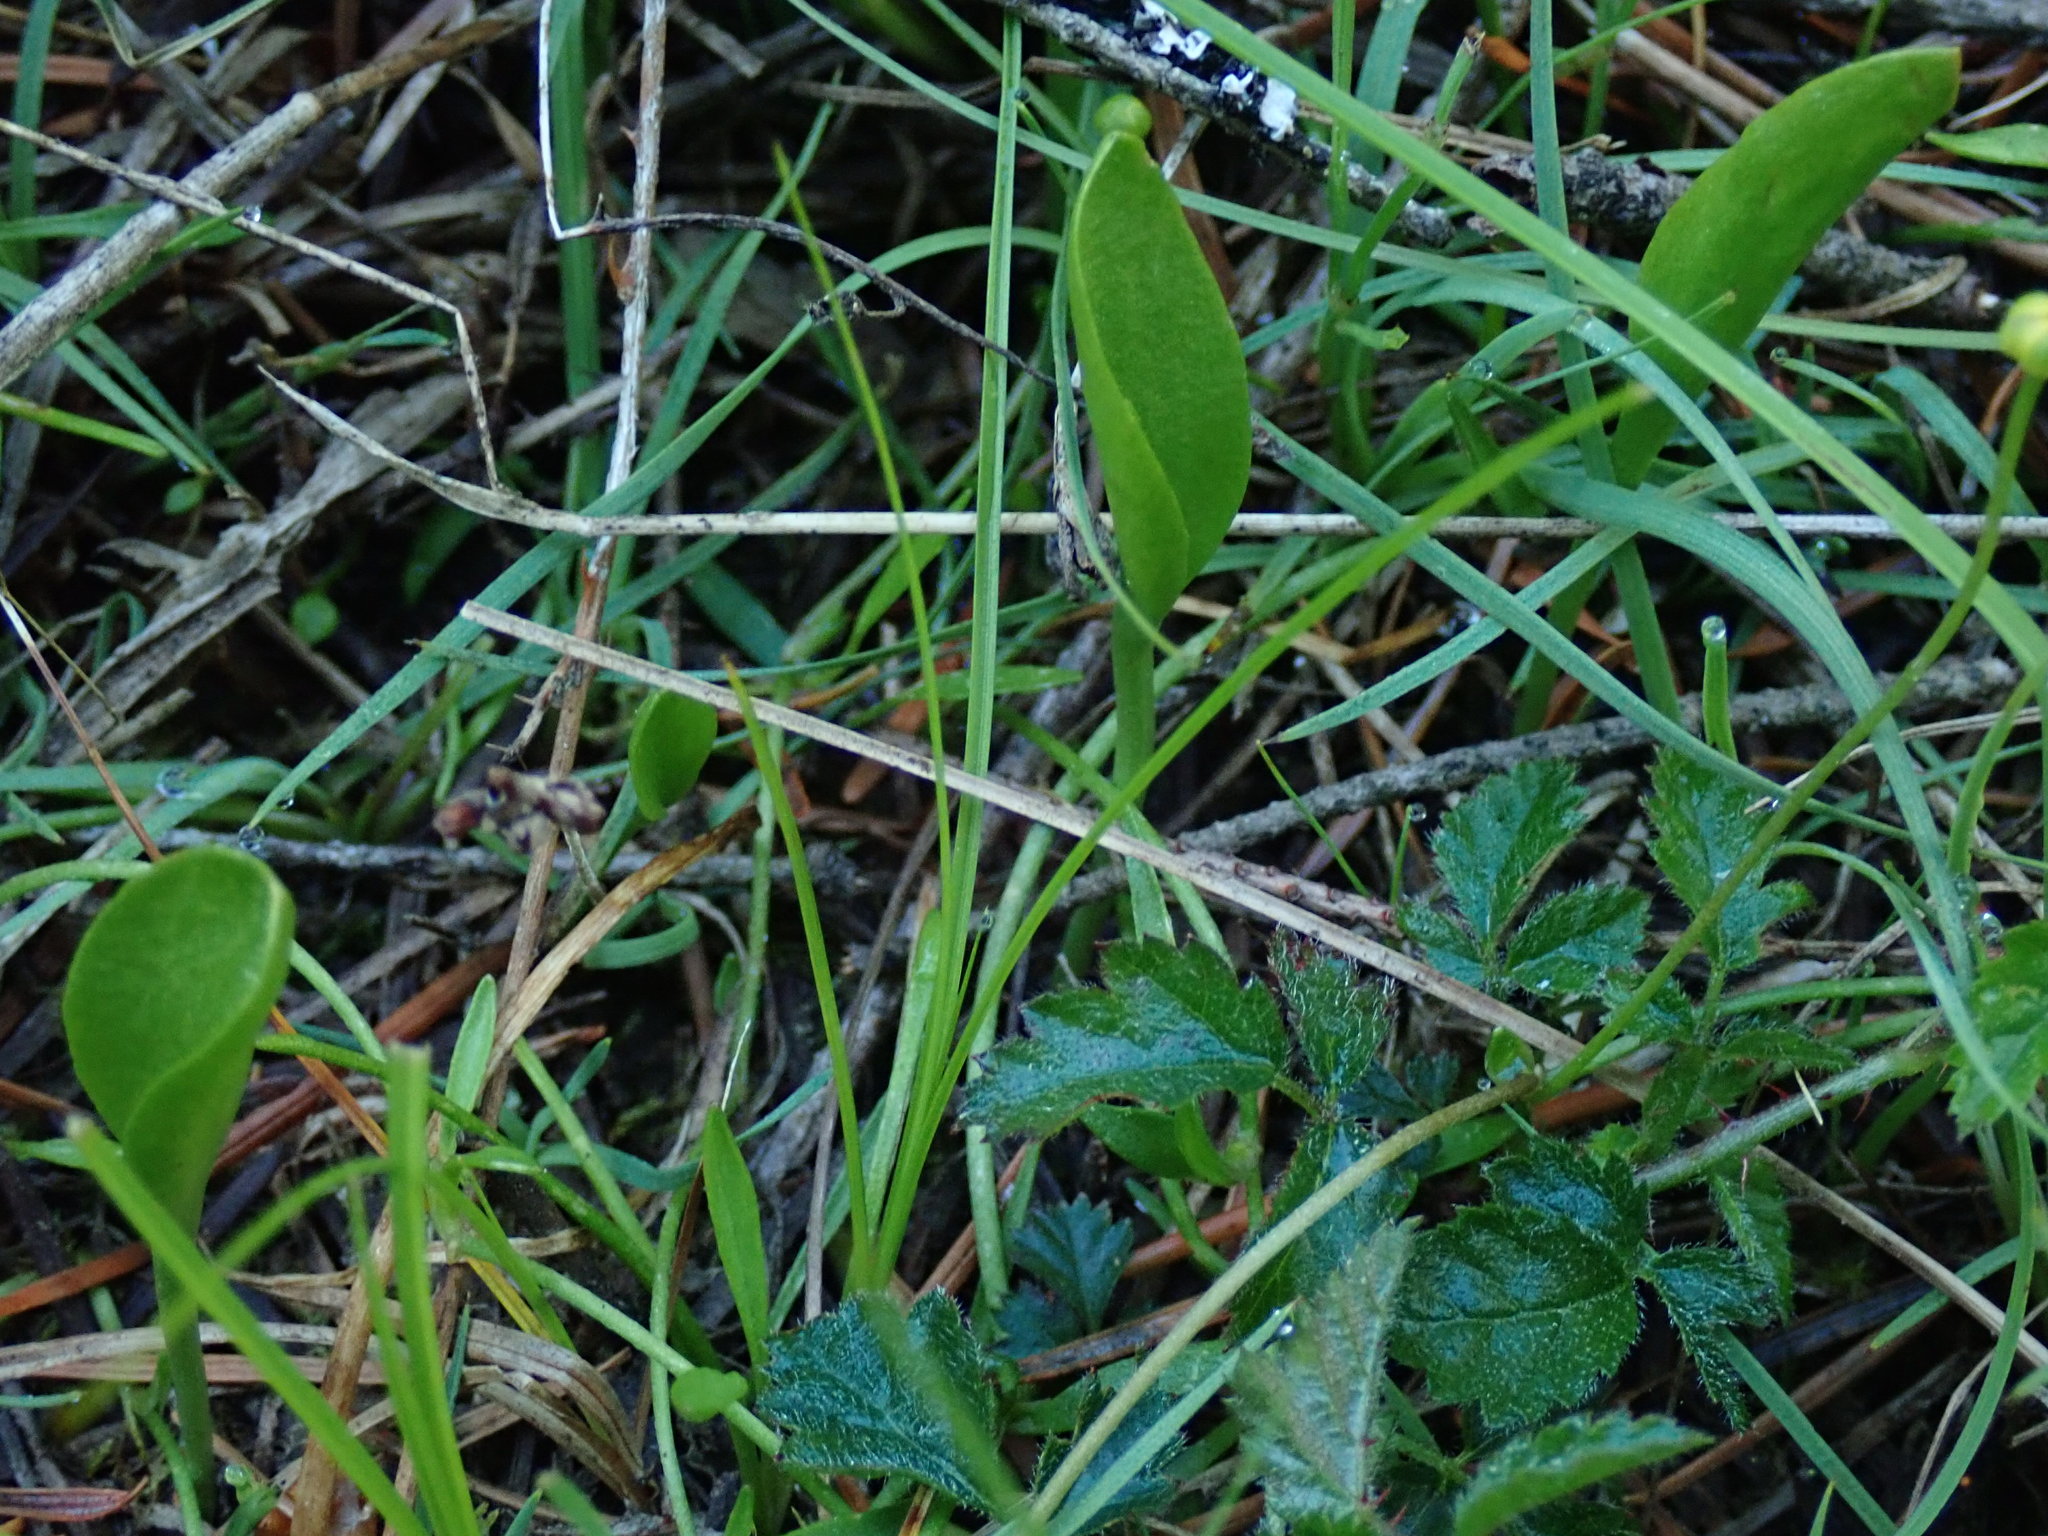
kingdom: Plantae
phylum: Tracheophyta
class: Polypodiopsida
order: Ophioglossales
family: Ophioglossaceae
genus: Ophioglossum
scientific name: Ophioglossum pusillum
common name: Northern adder's-tongue
